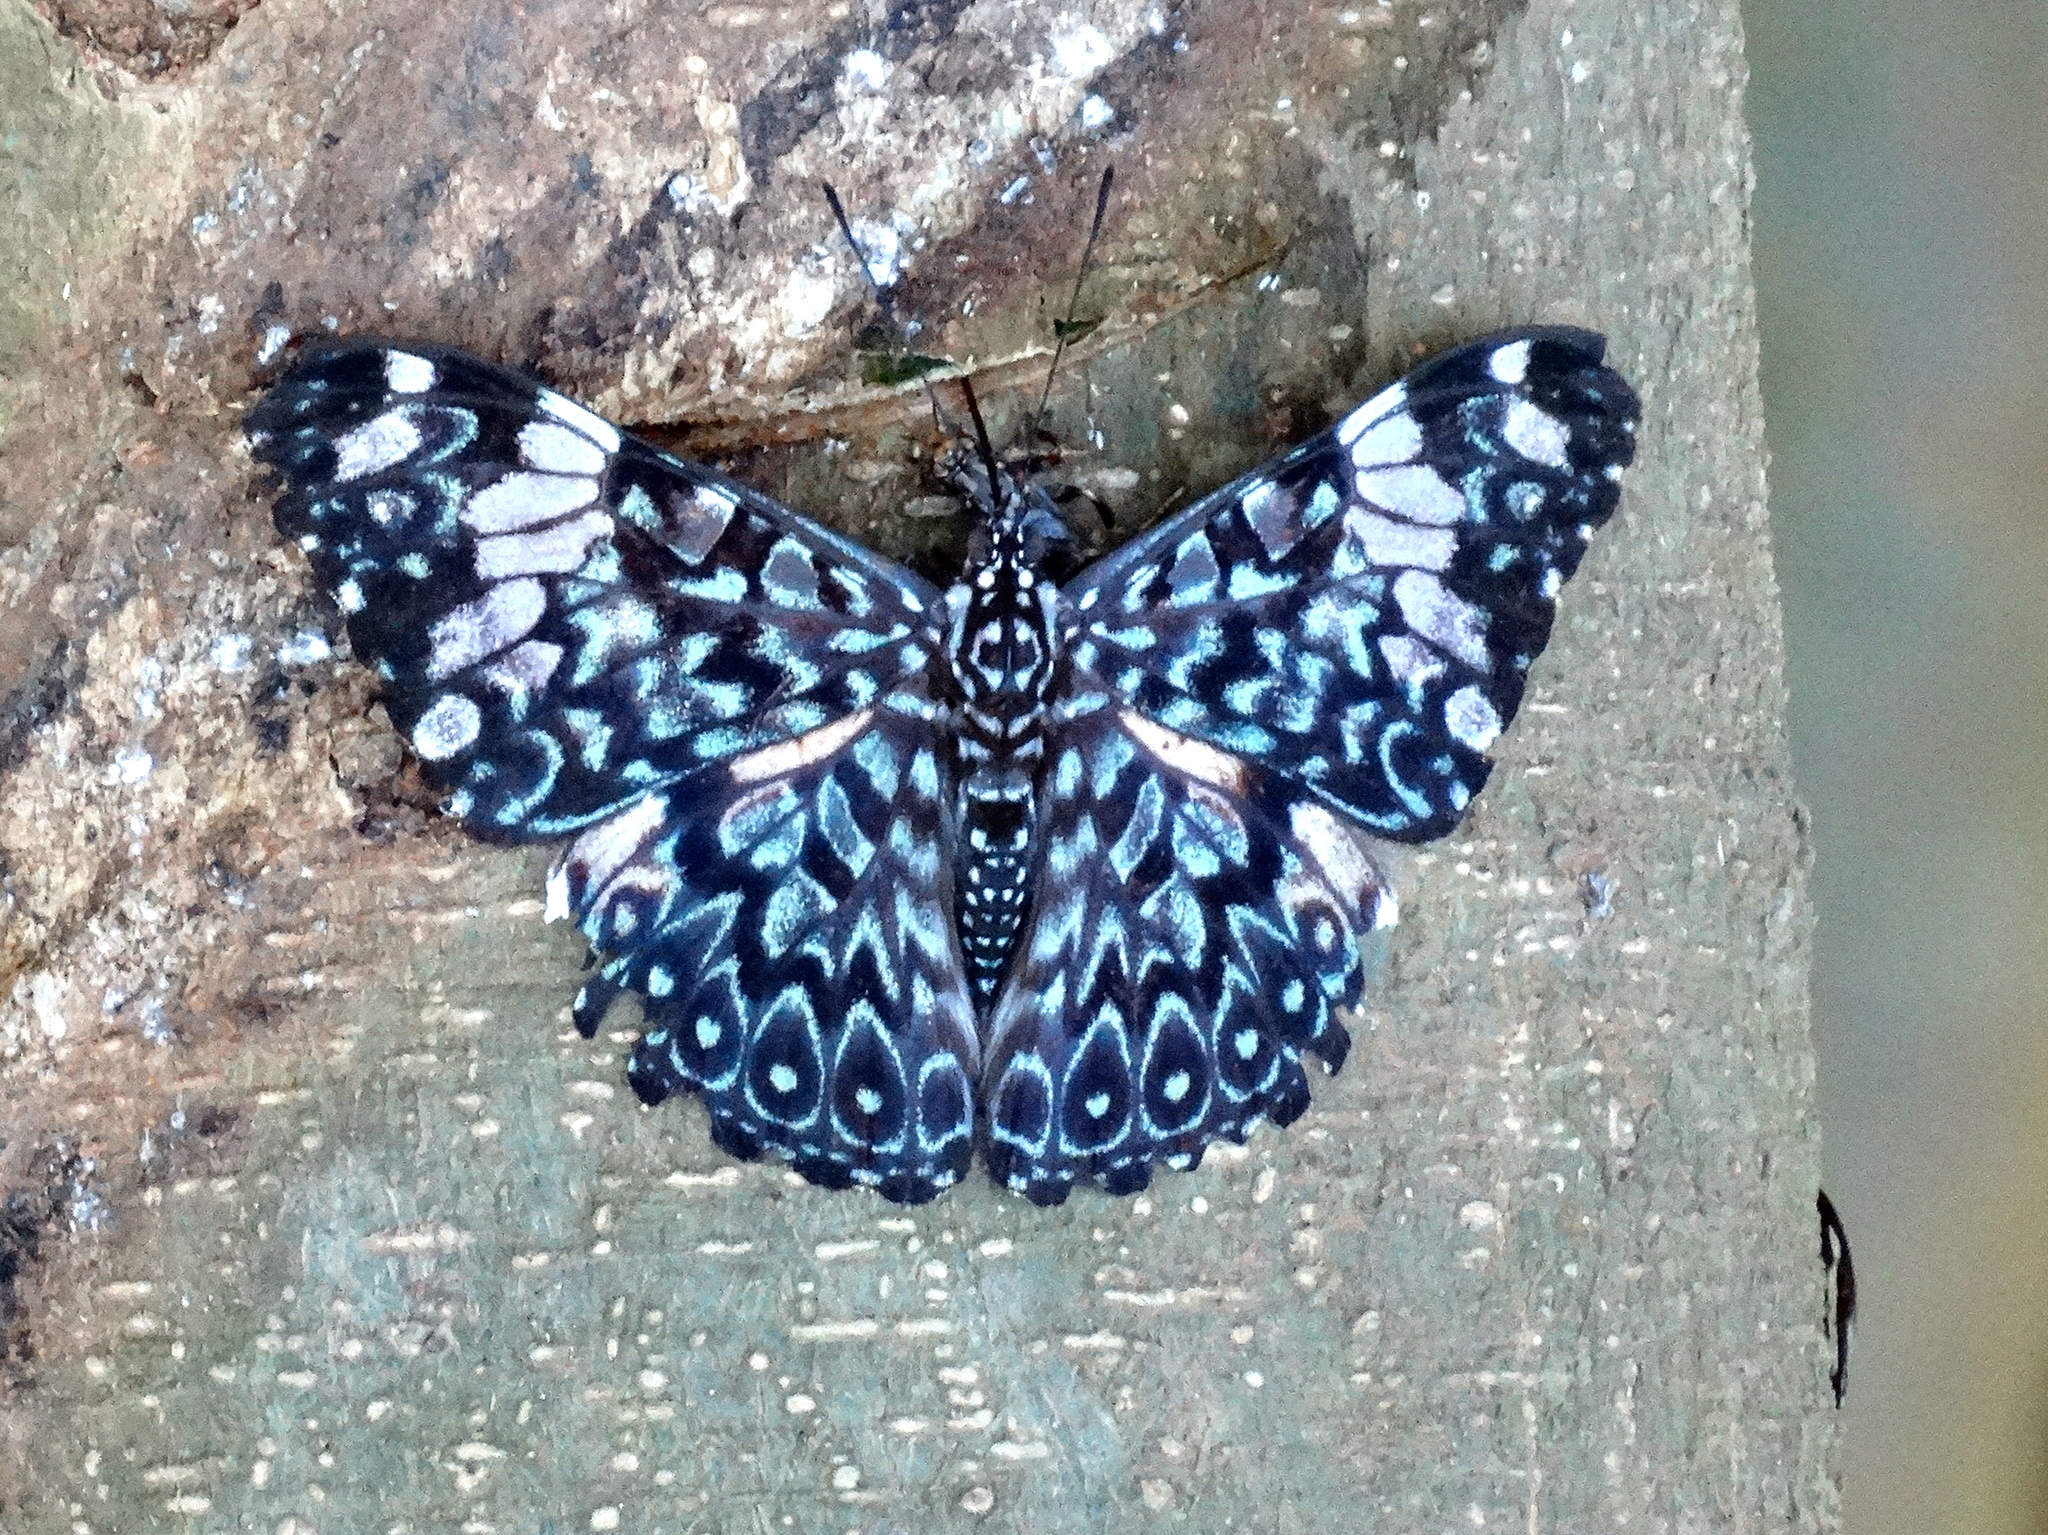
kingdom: Animalia
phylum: Arthropoda
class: Insecta
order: Lepidoptera
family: Nymphalidae
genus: Hamadryas
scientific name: Hamadryas amphinome
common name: Red cracker
